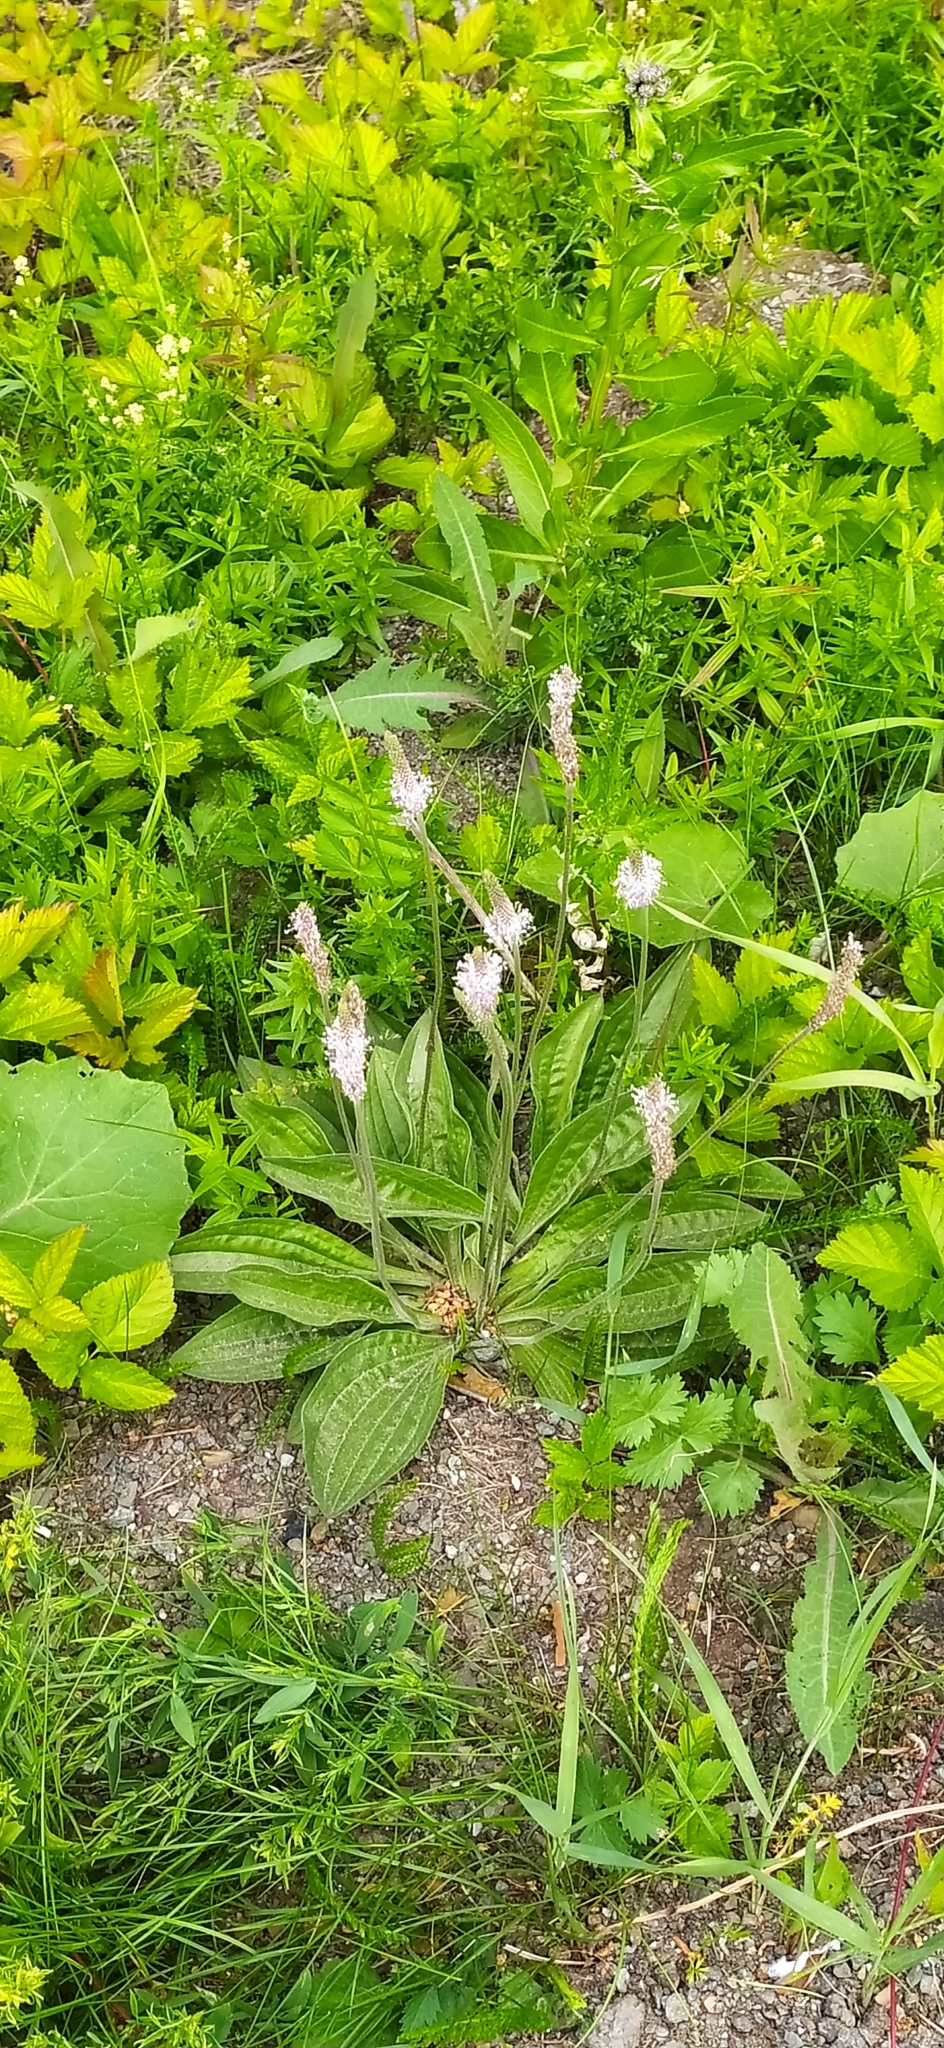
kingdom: Plantae
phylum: Tracheophyta
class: Magnoliopsida
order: Lamiales
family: Plantaginaceae
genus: Plantago
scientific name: Plantago media
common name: Hoary plantain
